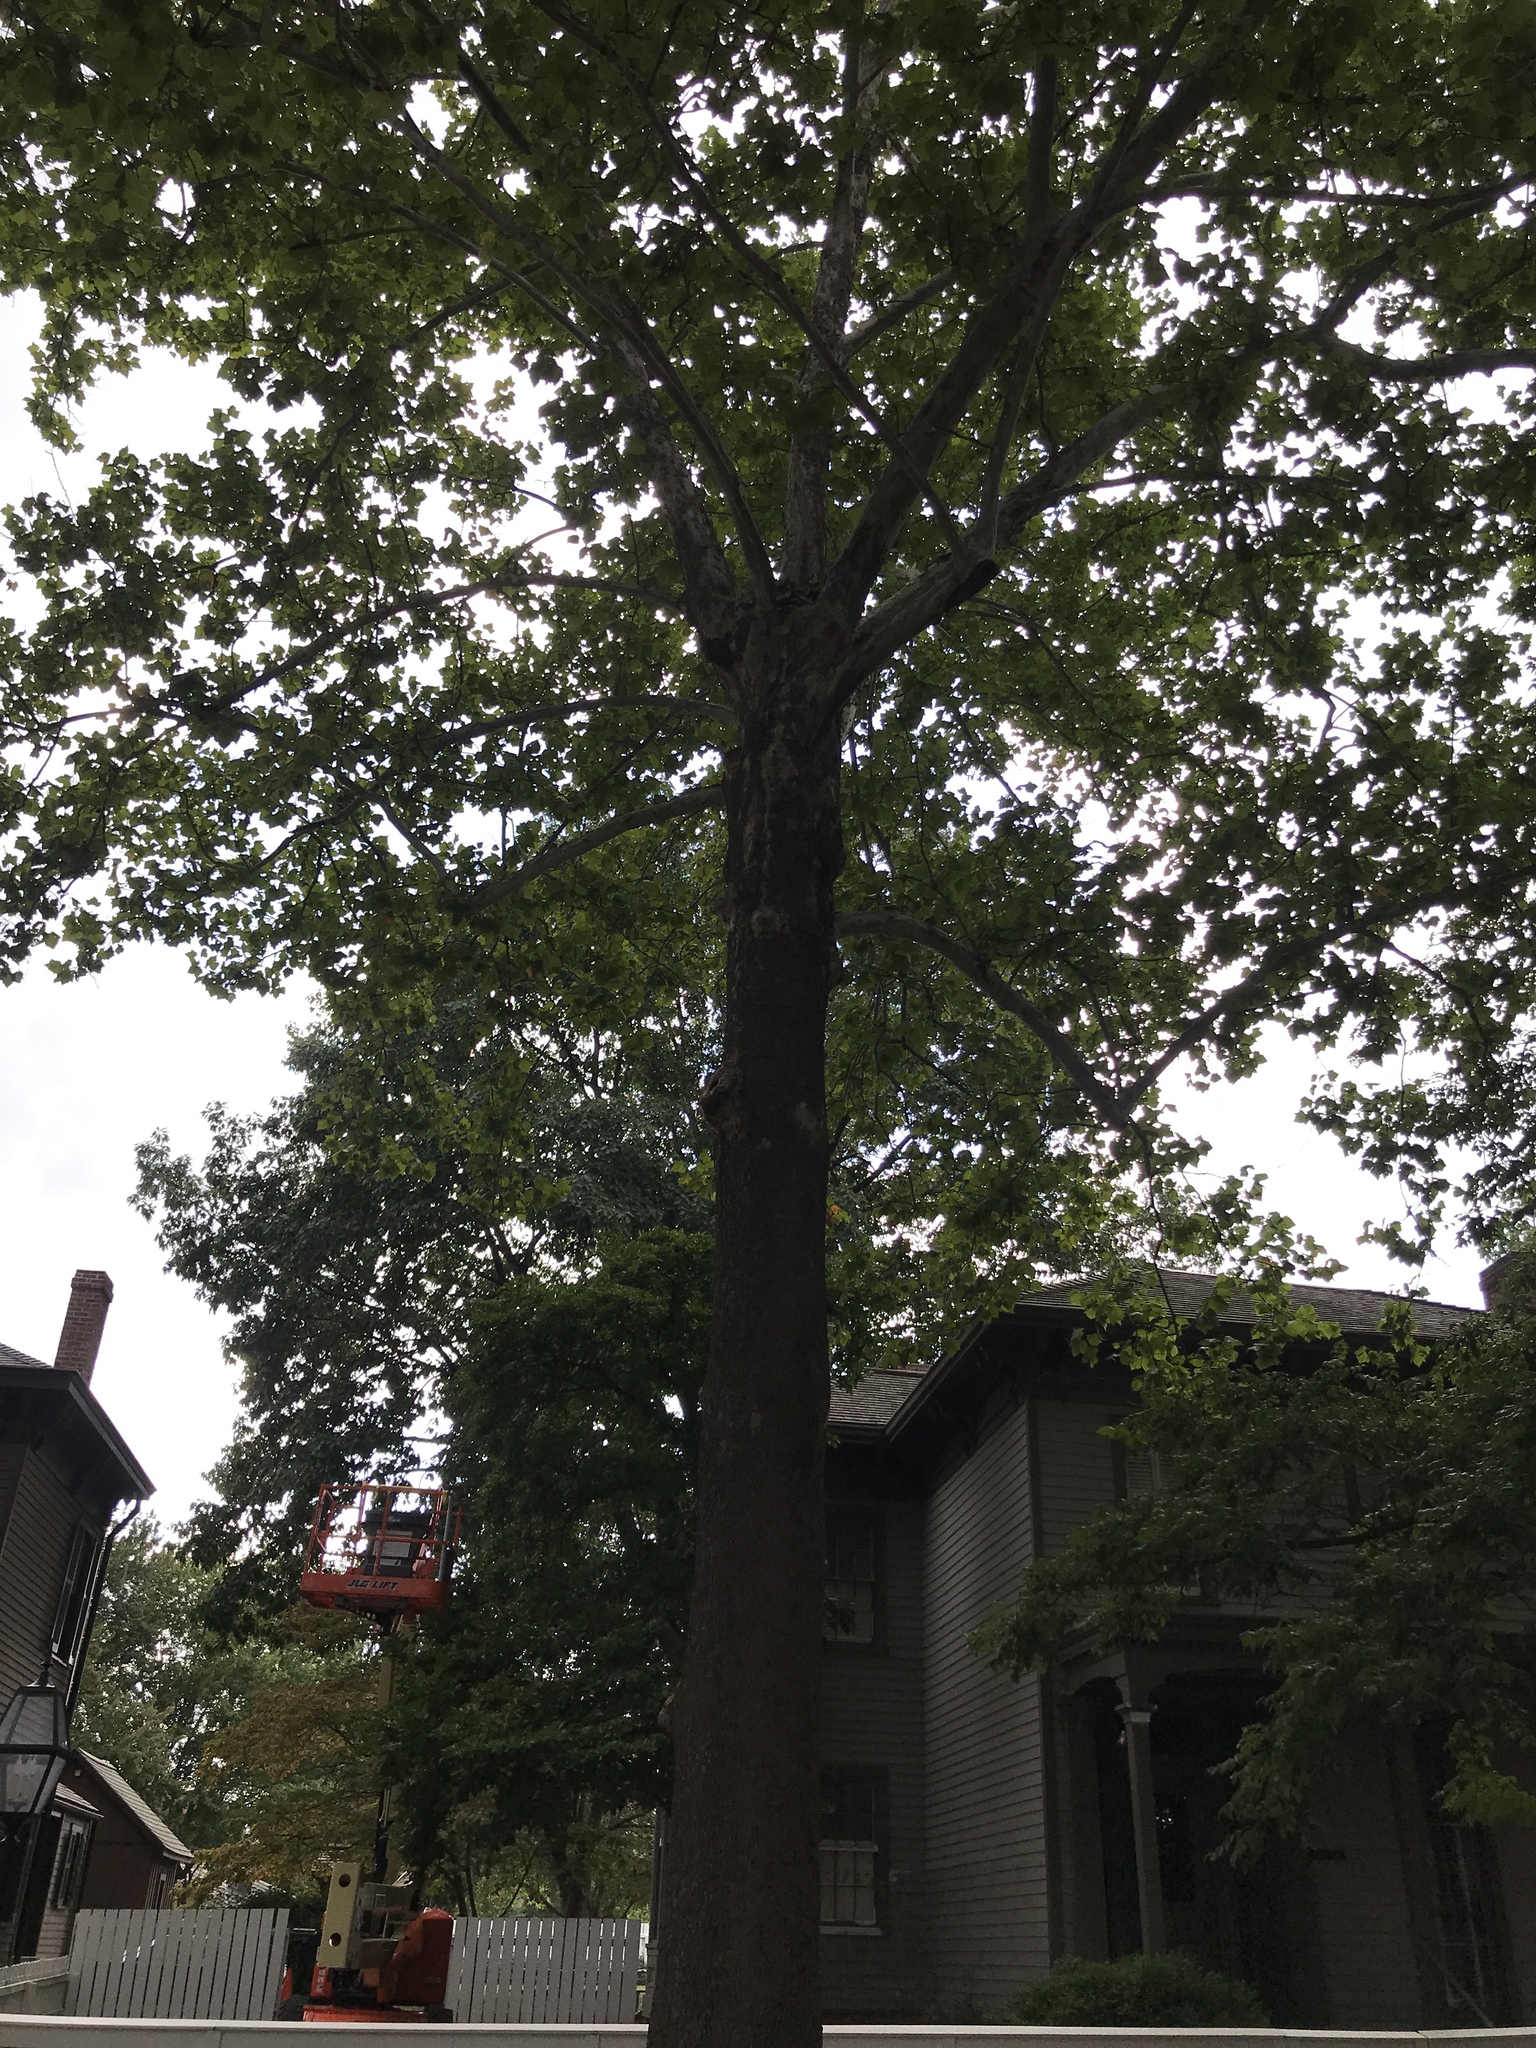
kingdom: Plantae
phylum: Tracheophyta
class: Magnoliopsida
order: Proteales
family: Platanaceae
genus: Platanus
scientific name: Platanus occidentalis
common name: American sycamore
